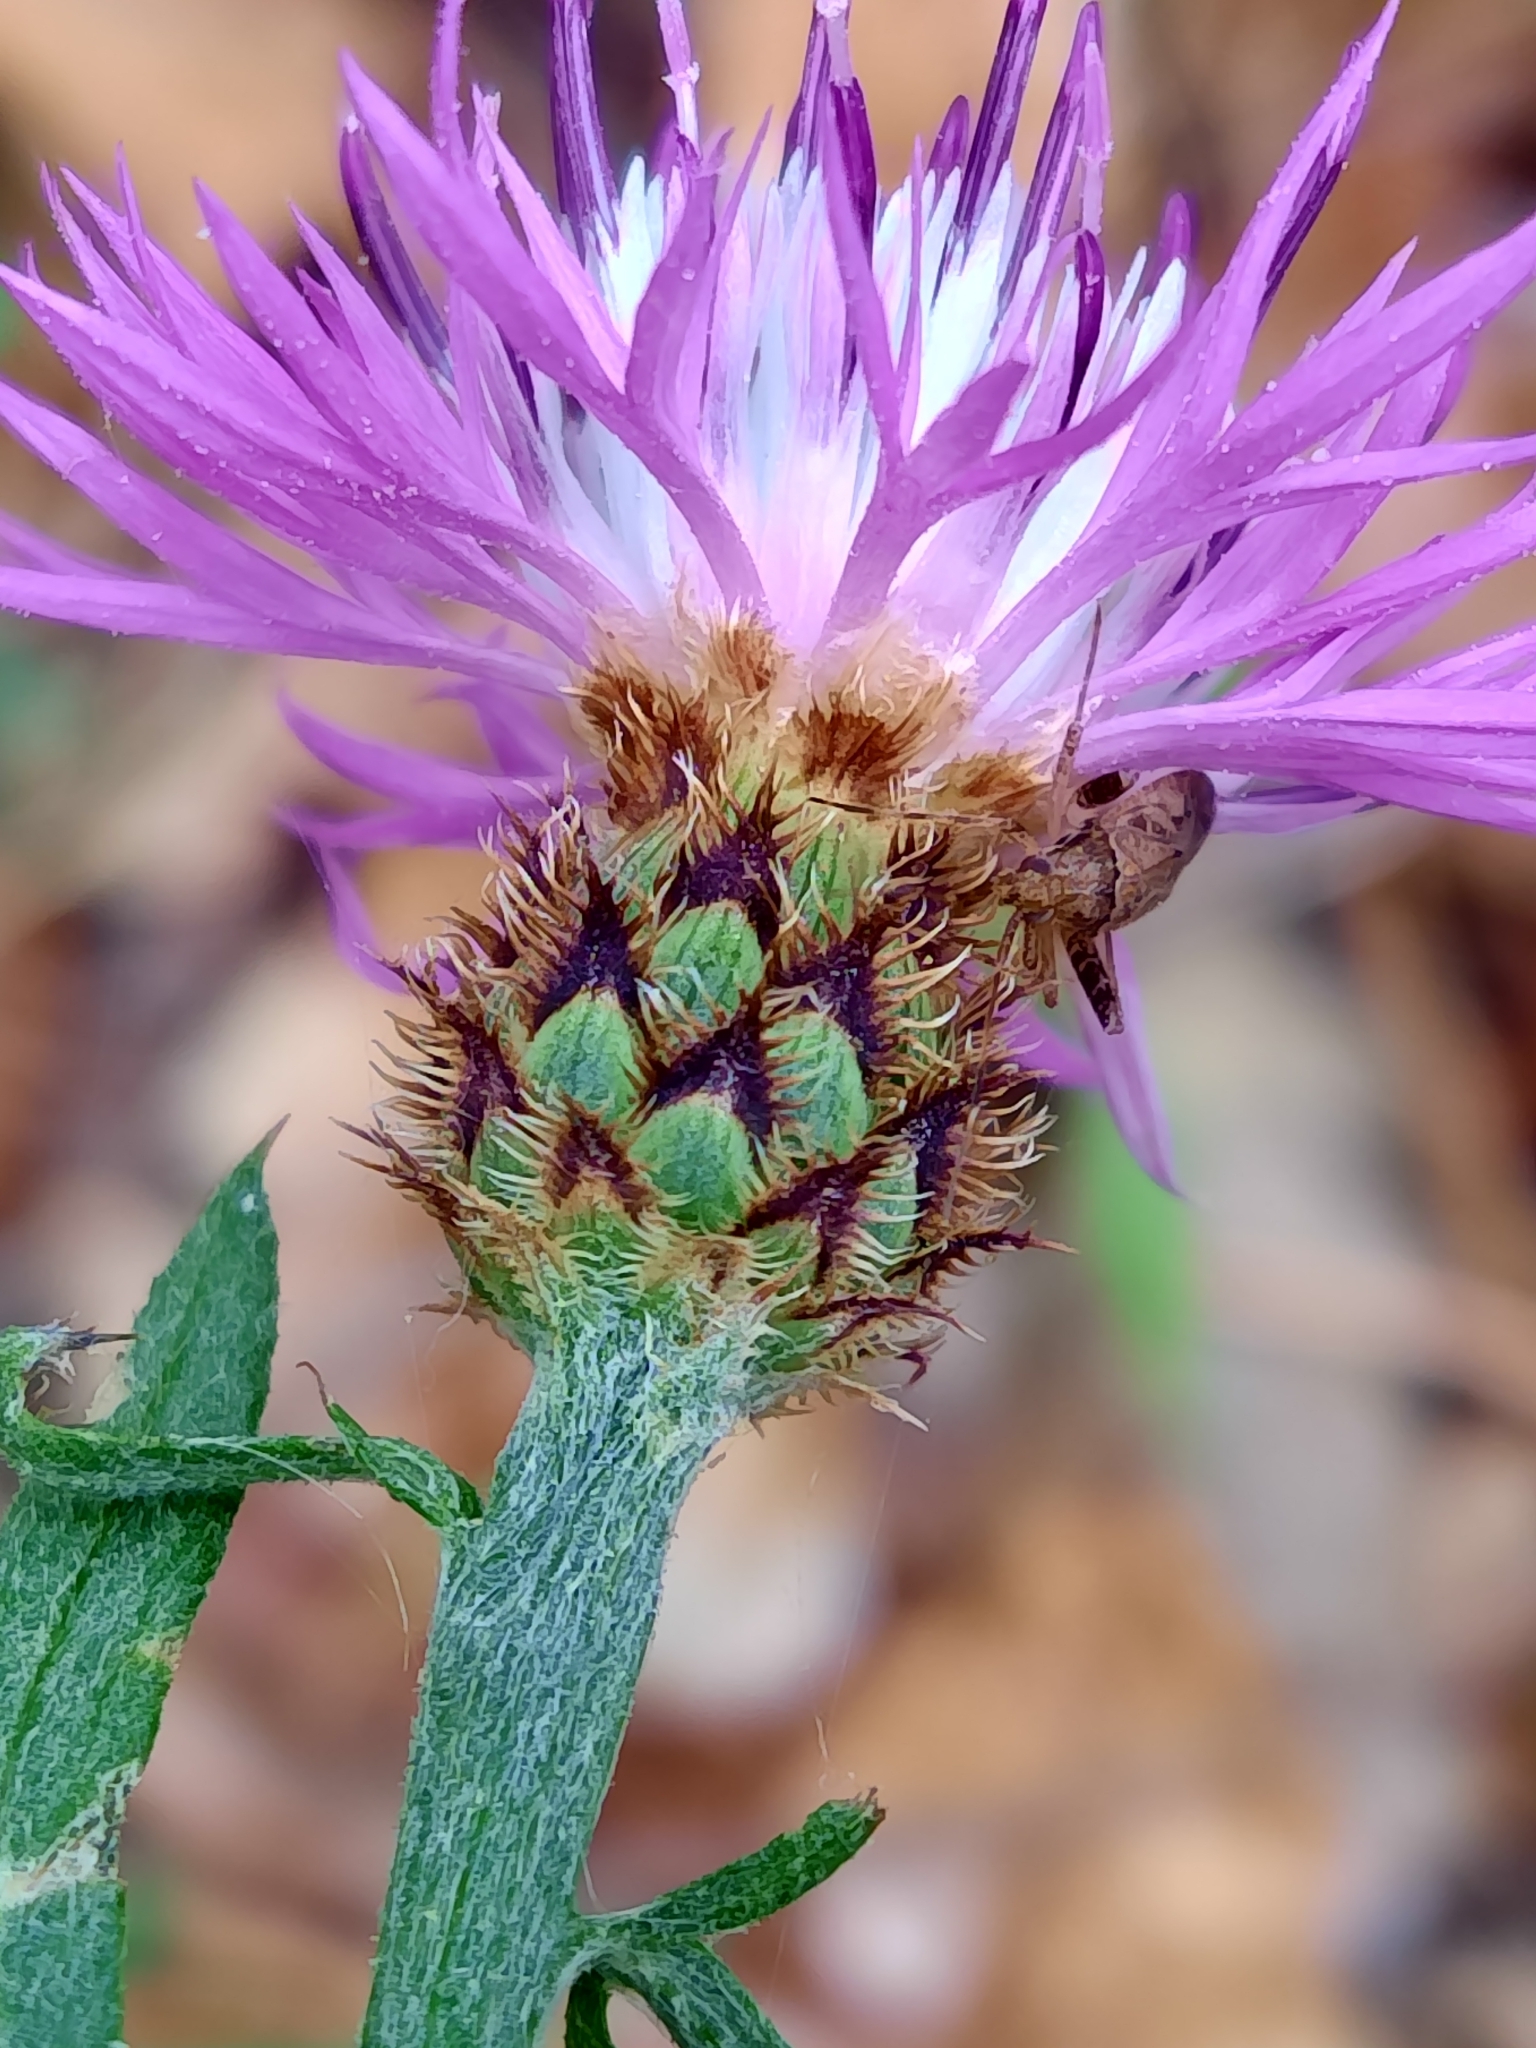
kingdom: Plantae
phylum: Tracheophyta
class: Magnoliopsida
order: Asterales
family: Asteraceae
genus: Centaurea
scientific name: Centaurea limbata
